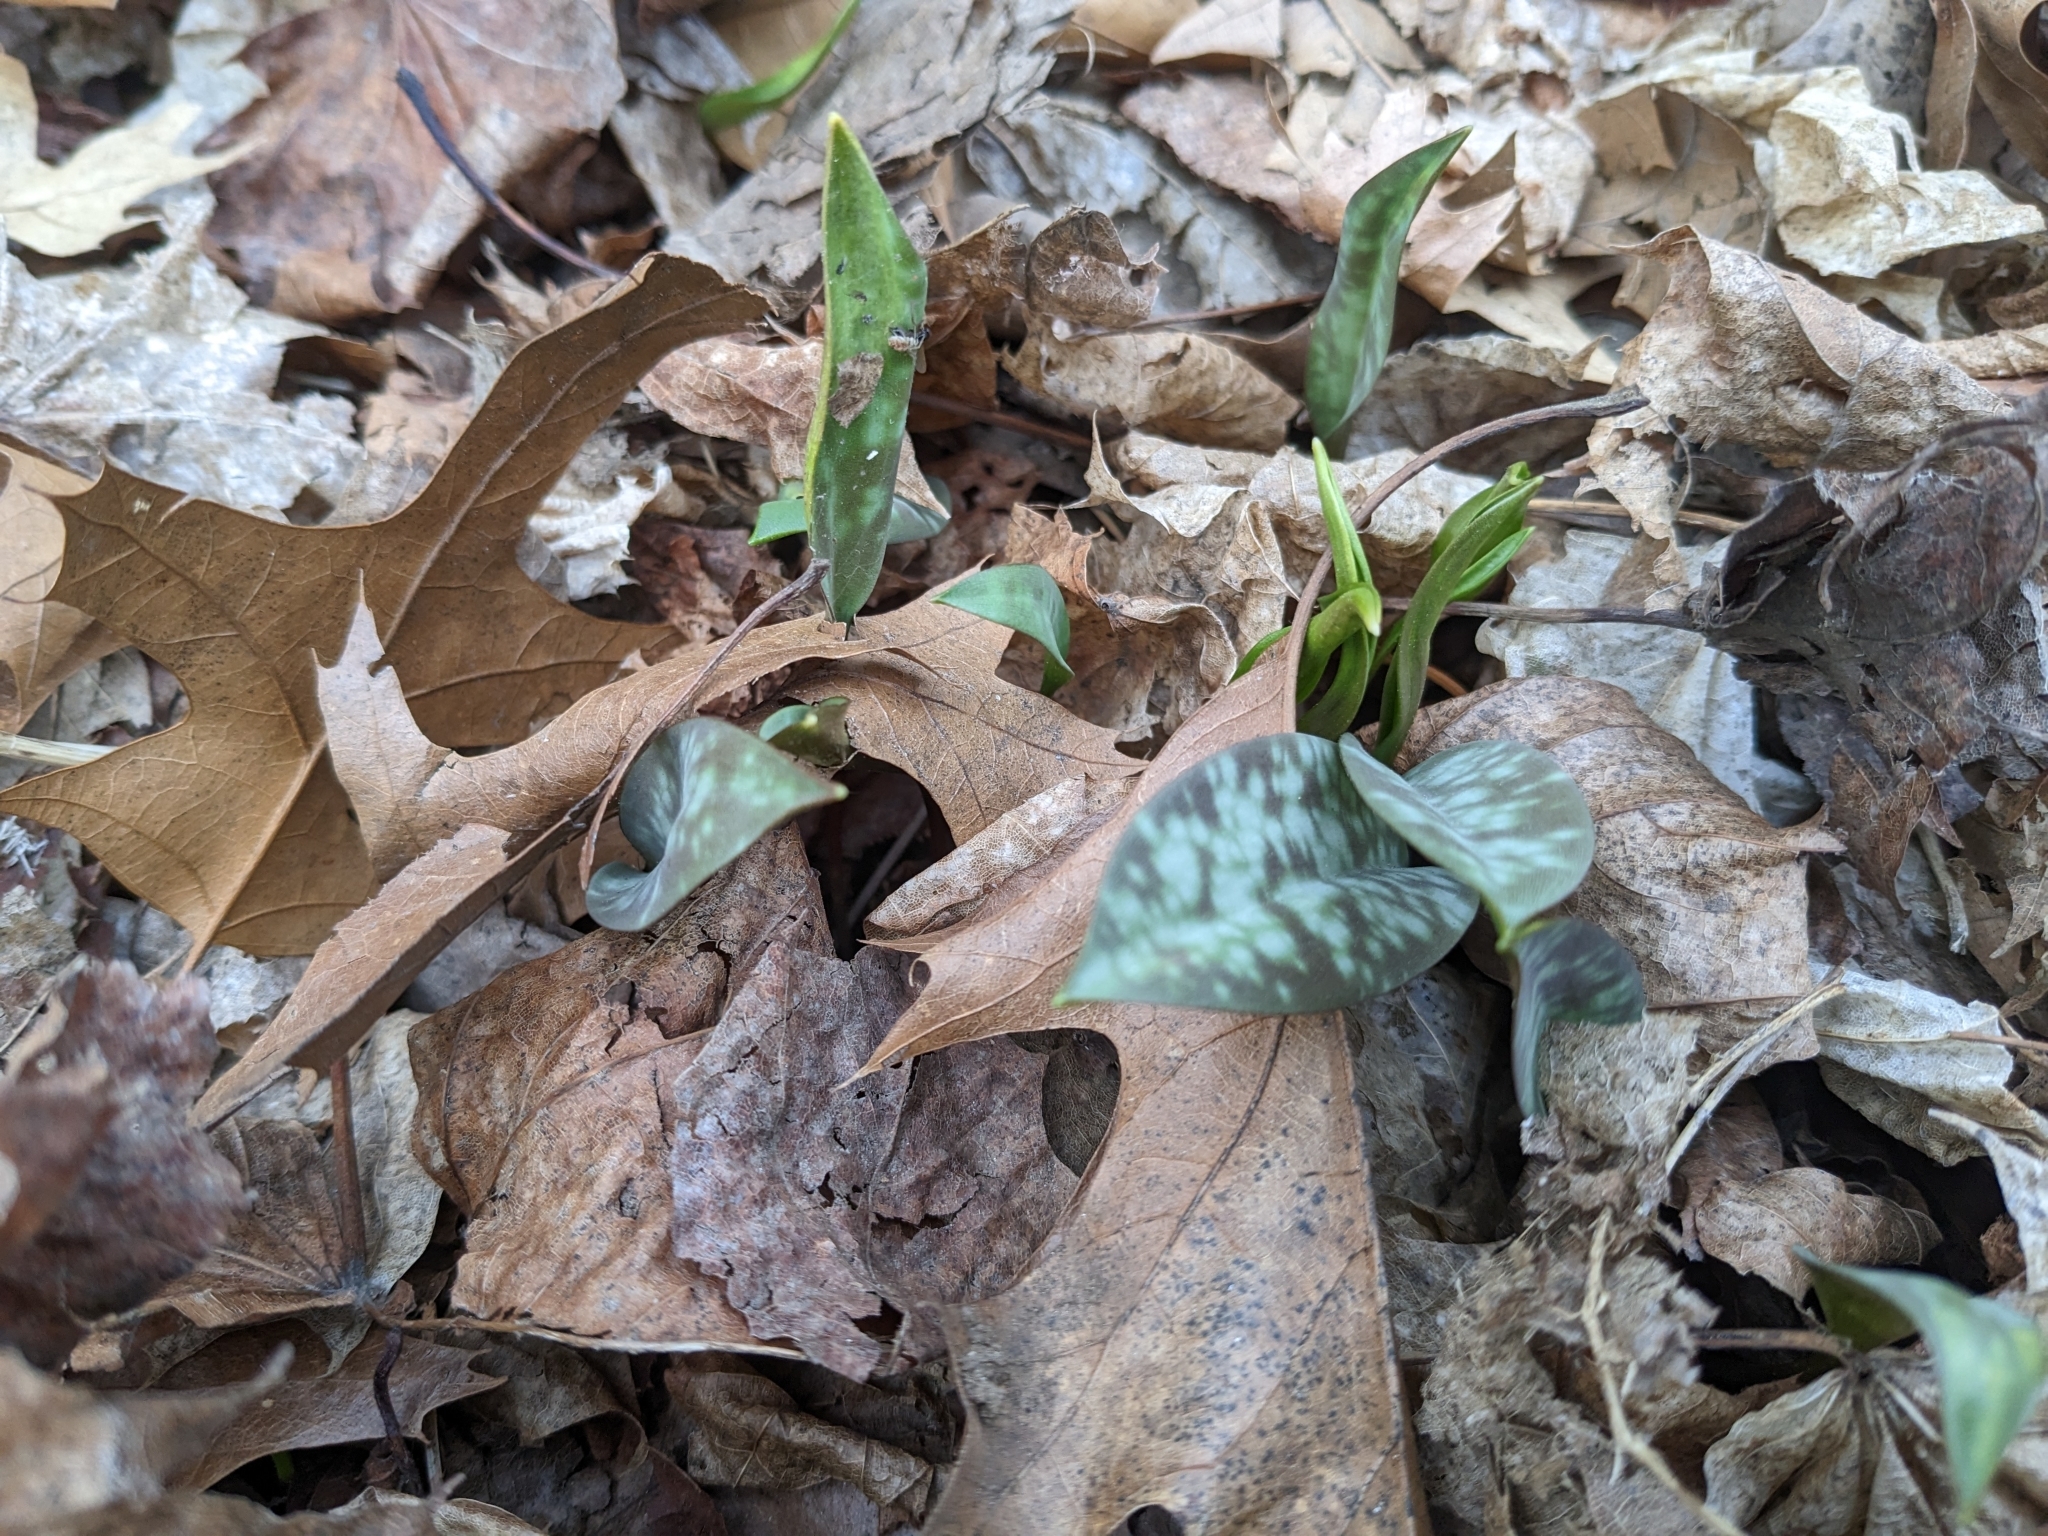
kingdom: Plantae
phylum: Tracheophyta
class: Liliopsida
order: Liliales
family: Liliaceae
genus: Erythronium
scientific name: Erythronium americanum
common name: Yellow adder's-tongue
